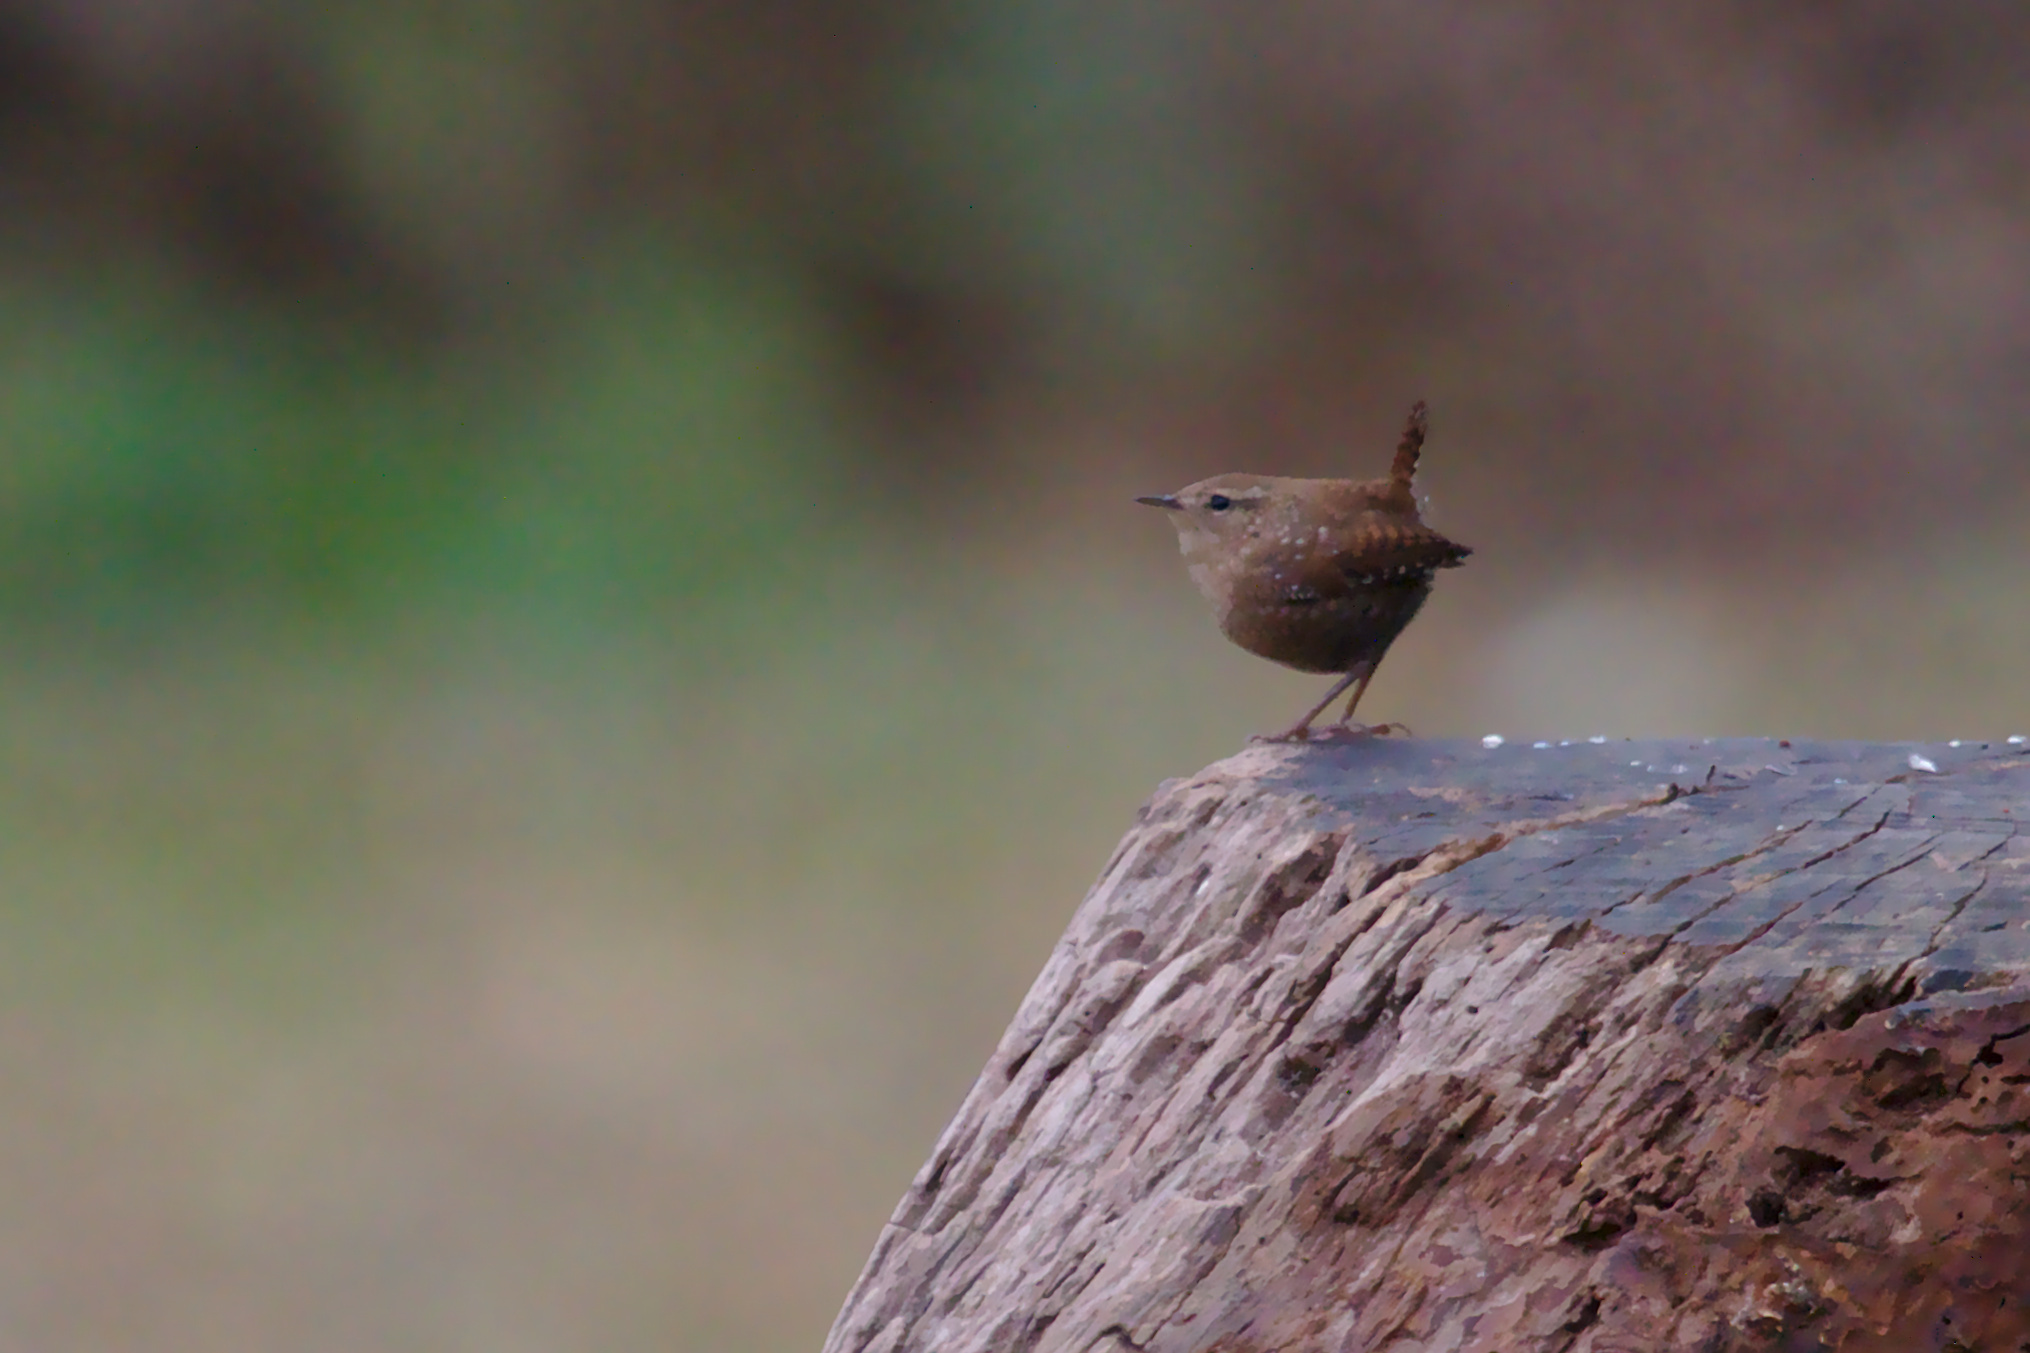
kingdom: Animalia
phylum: Chordata
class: Aves
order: Passeriformes
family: Troglodytidae
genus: Troglodytes
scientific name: Troglodytes hiemalis
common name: Winter wren
